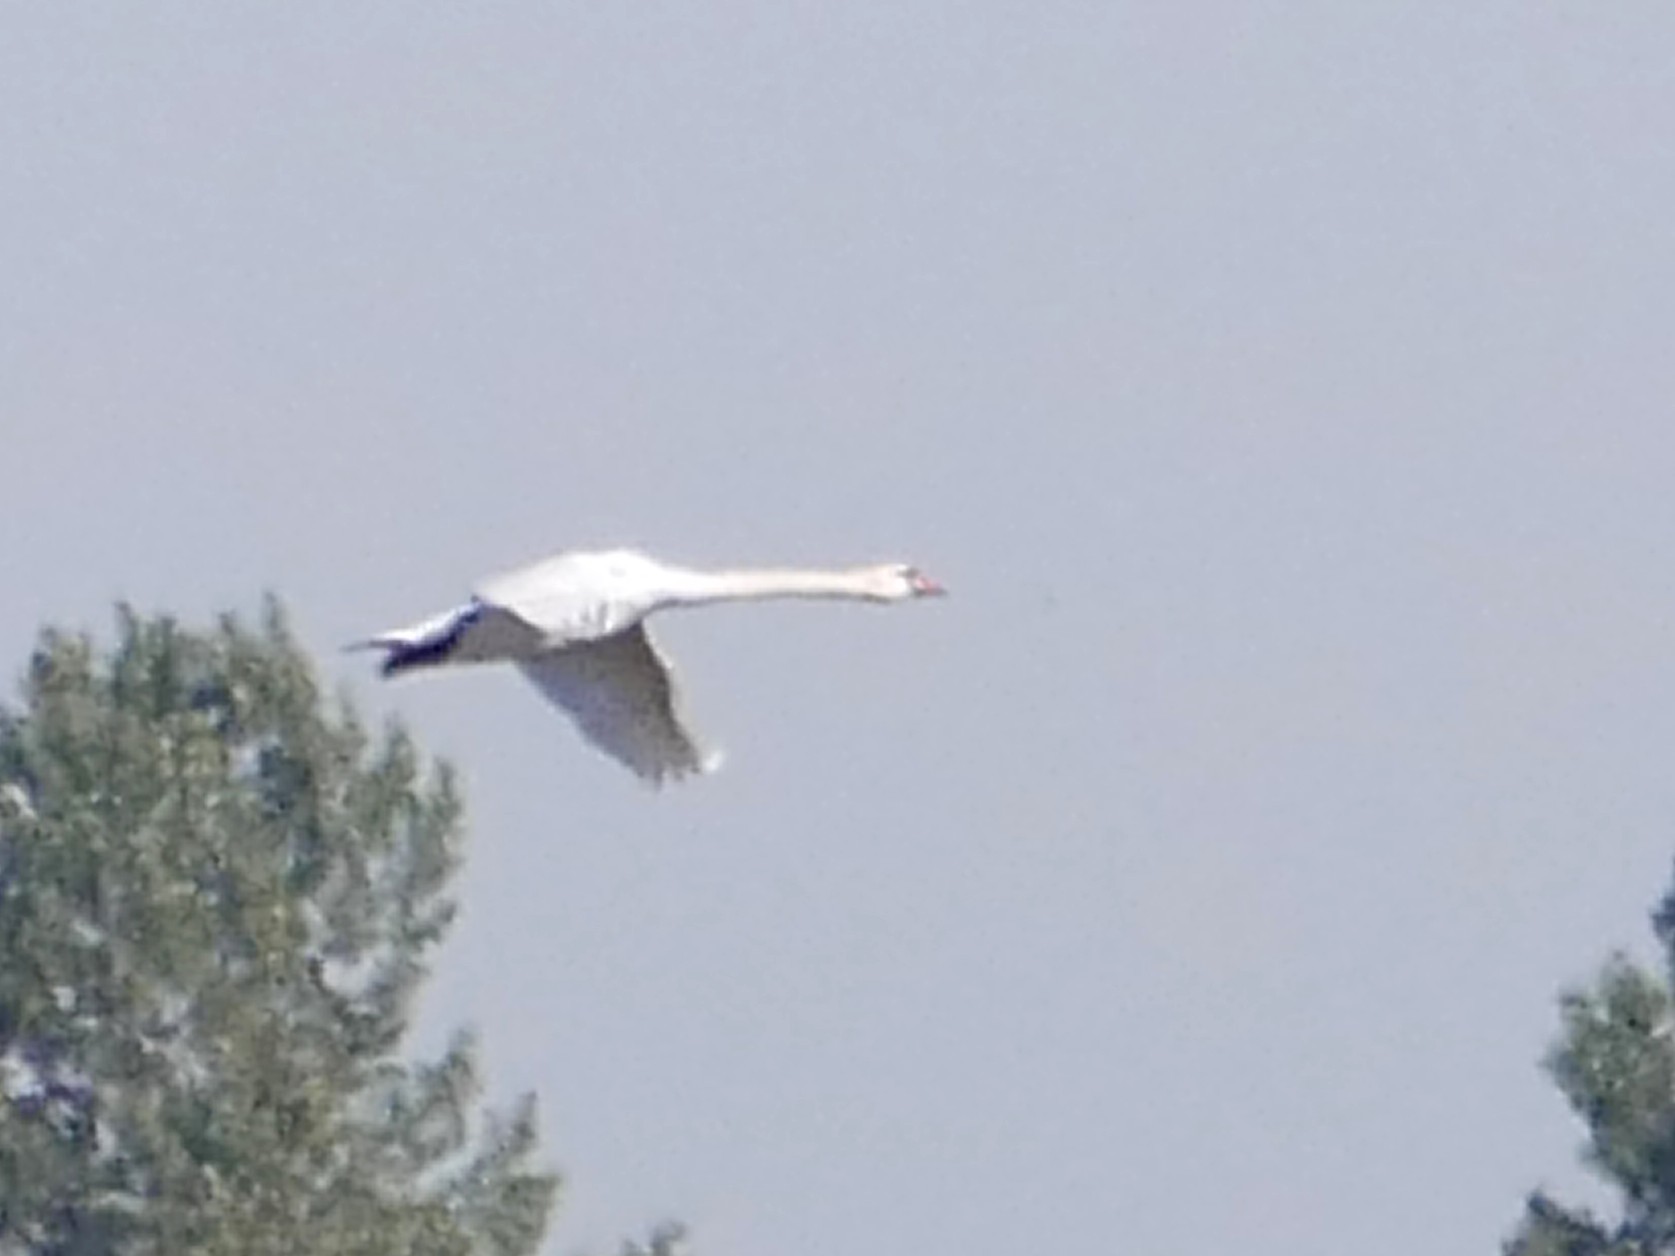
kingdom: Animalia
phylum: Chordata
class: Aves
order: Anseriformes
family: Anatidae
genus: Cygnus
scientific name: Cygnus olor
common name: Mute swan
